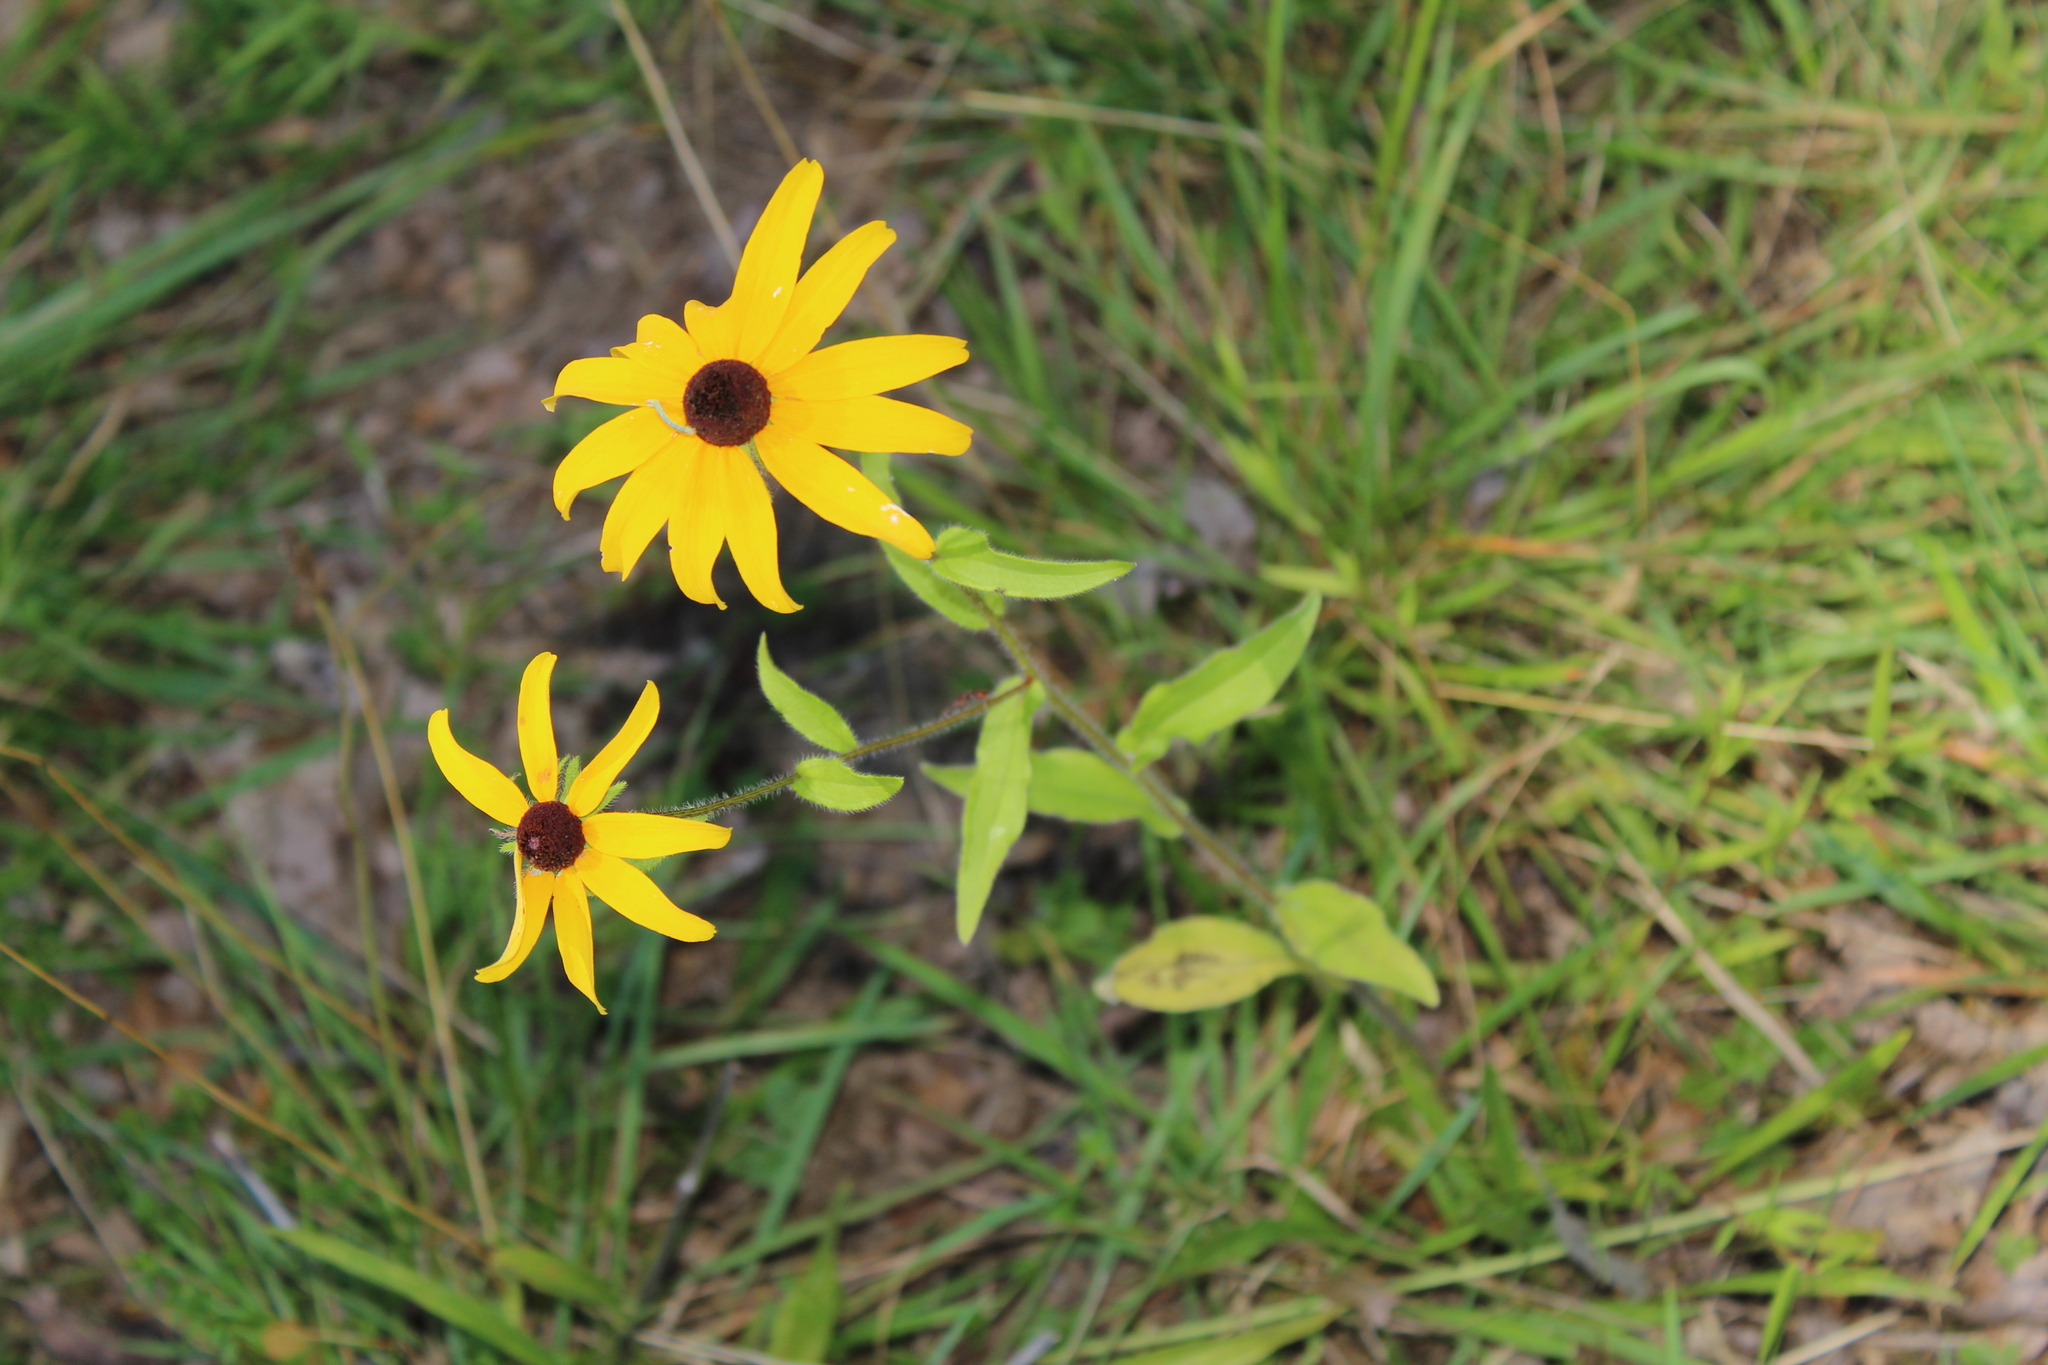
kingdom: Plantae
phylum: Tracheophyta
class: Magnoliopsida
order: Asterales
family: Asteraceae
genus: Rudbeckia
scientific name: Rudbeckia hirta
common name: Black-eyed-susan
